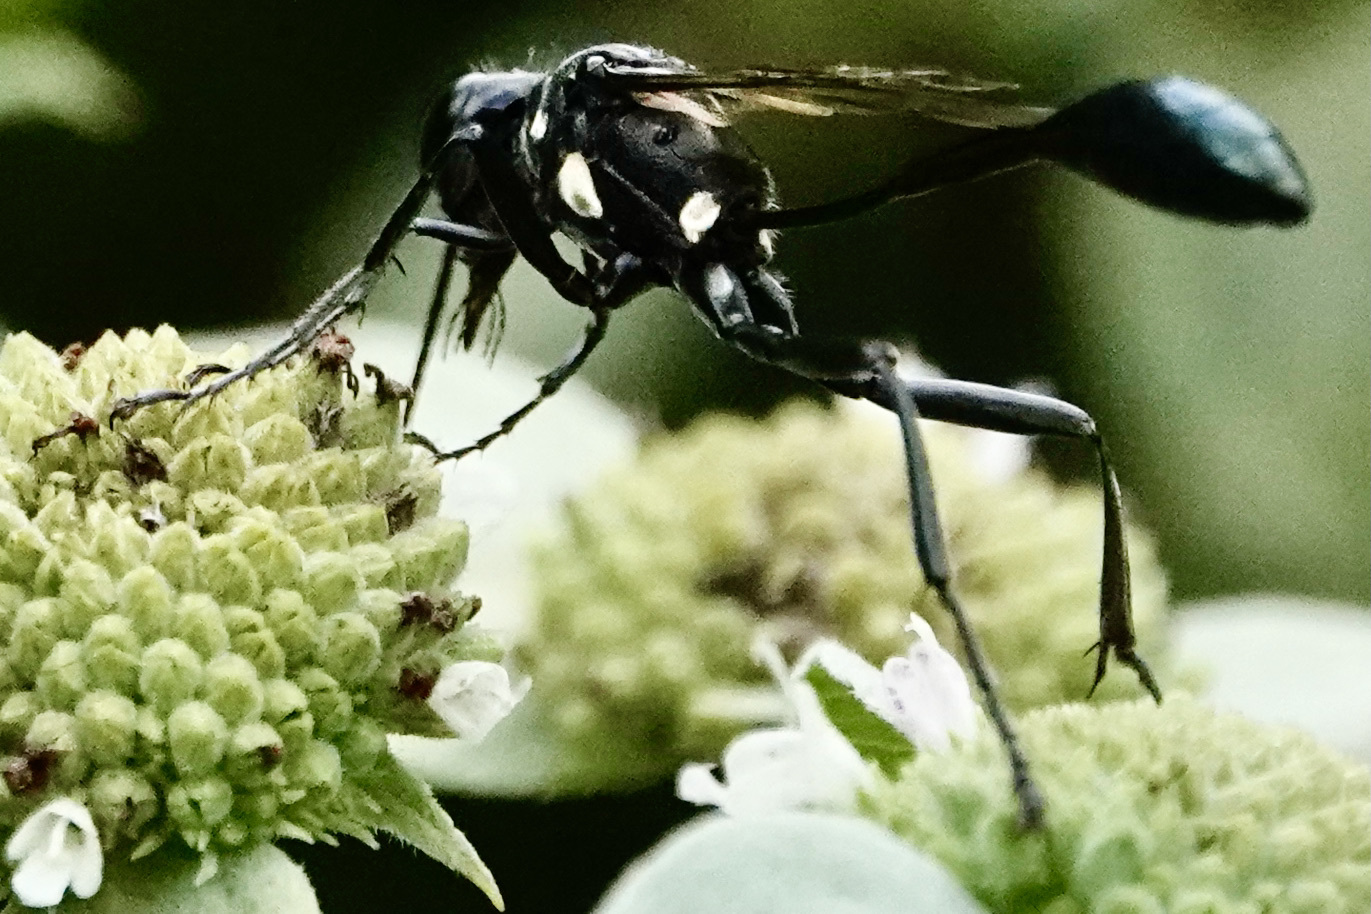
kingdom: Animalia
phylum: Arthropoda
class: Insecta
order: Hymenoptera
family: Sphecidae
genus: Eremnophila
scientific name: Eremnophila aureonotata
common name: Gold-marked thread-waisted wasp
